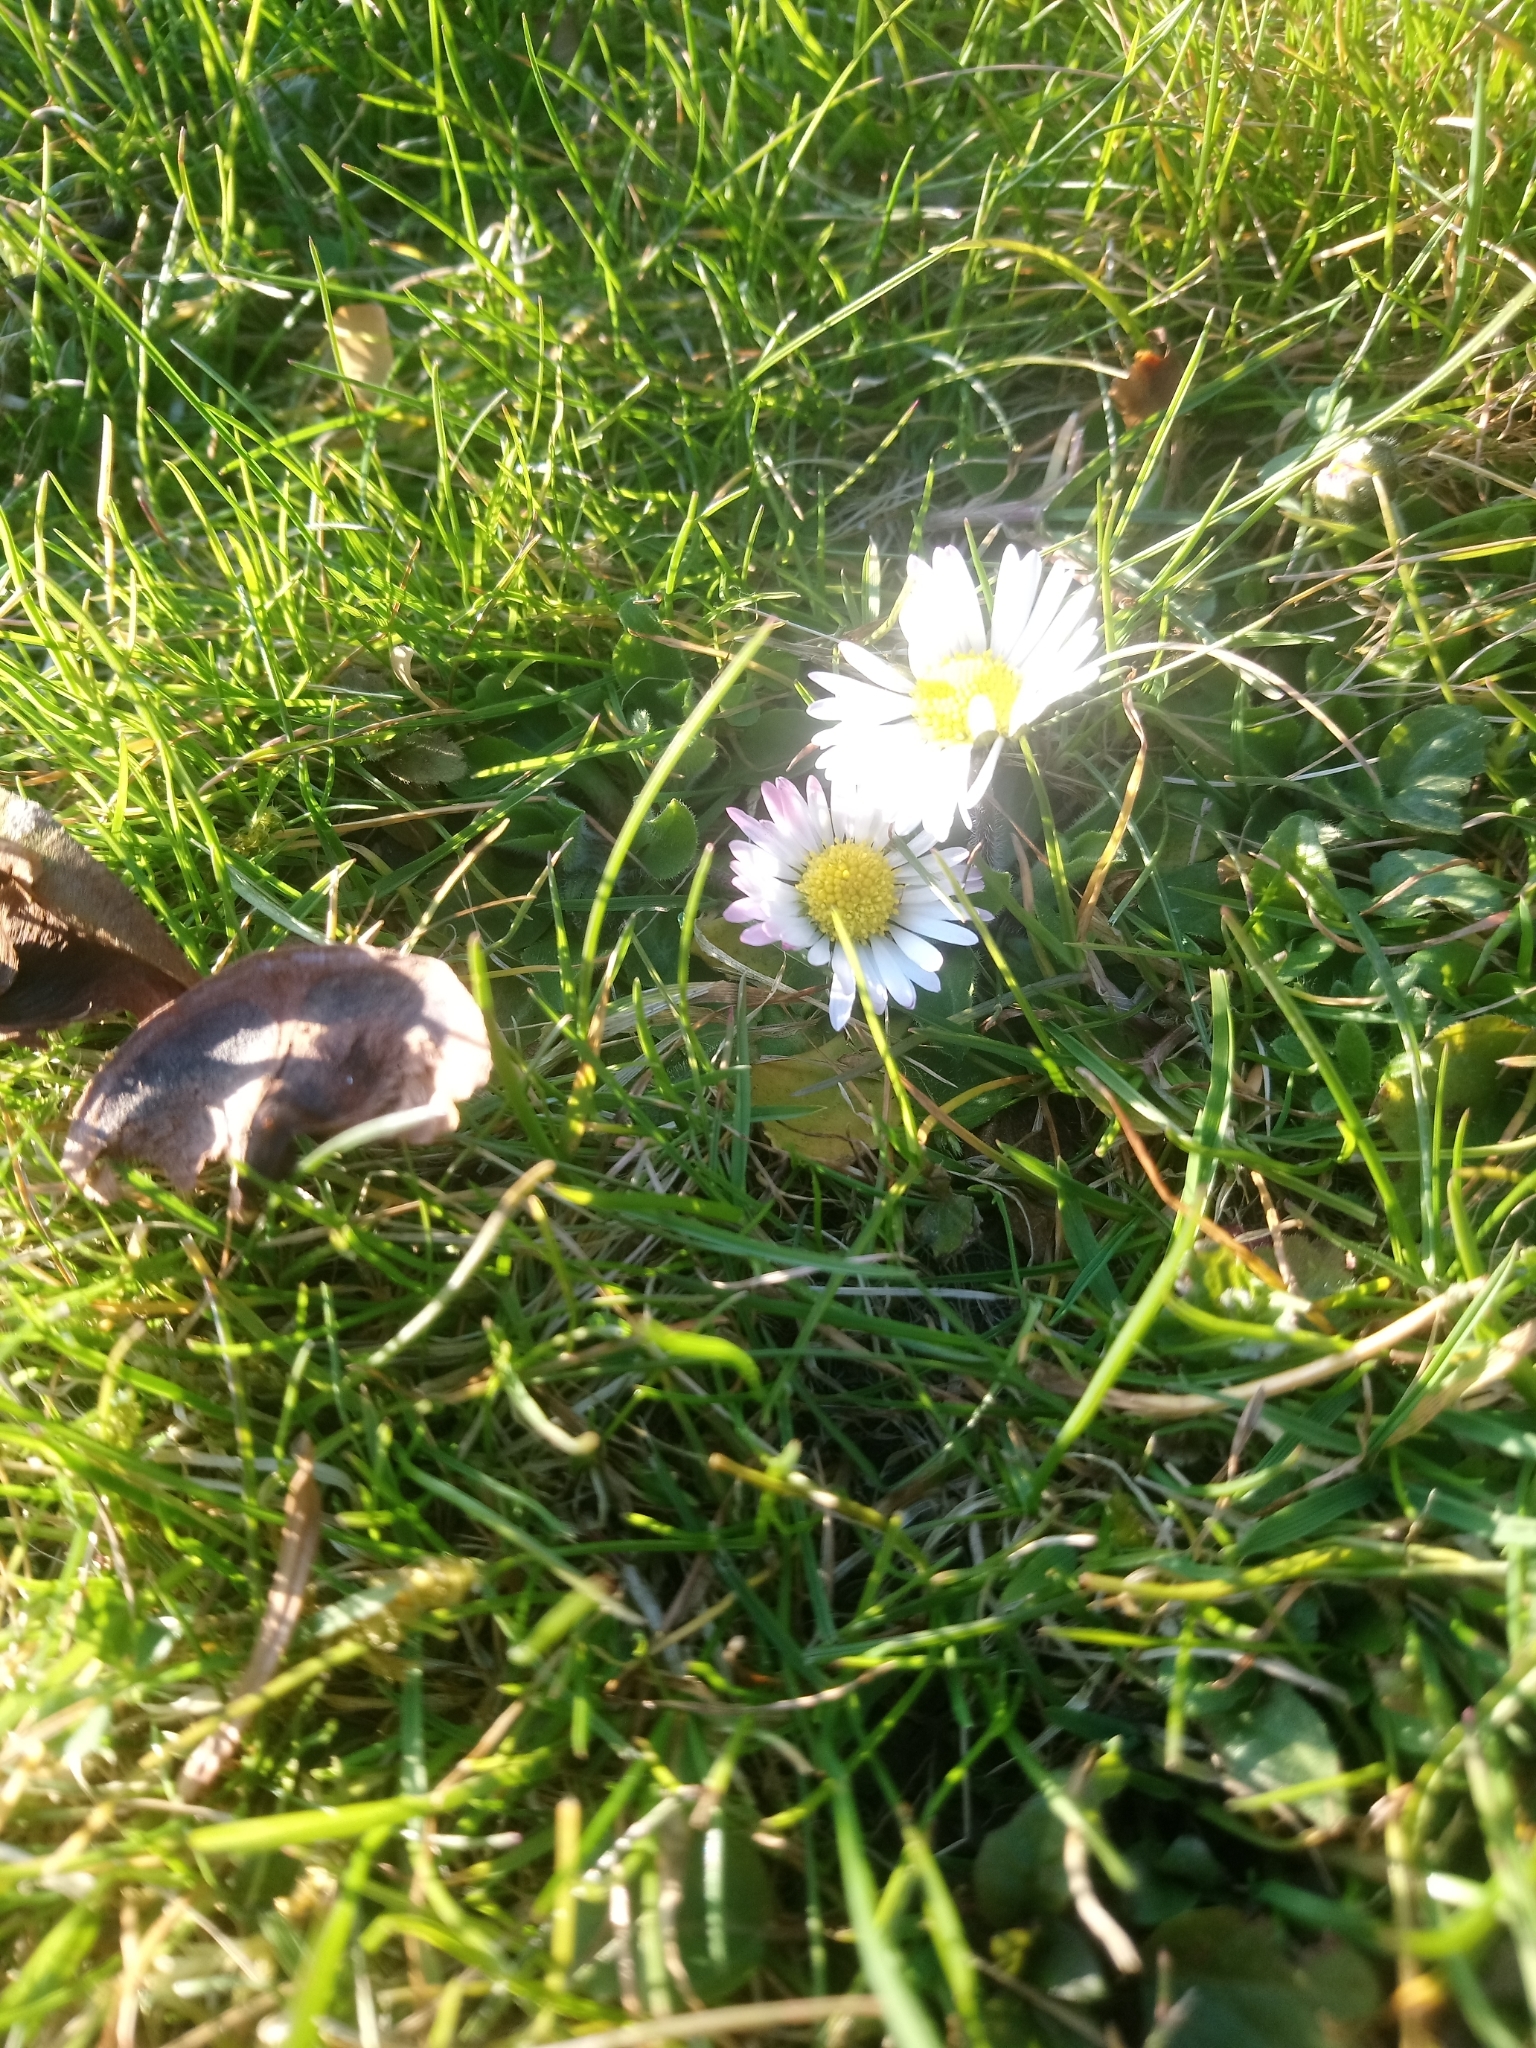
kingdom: Plantae
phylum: Tracheophyta
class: Magnoliopsida
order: Asterales
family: Asteraceae
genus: Bellis
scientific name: Bellis perennis
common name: Lawndaisy
